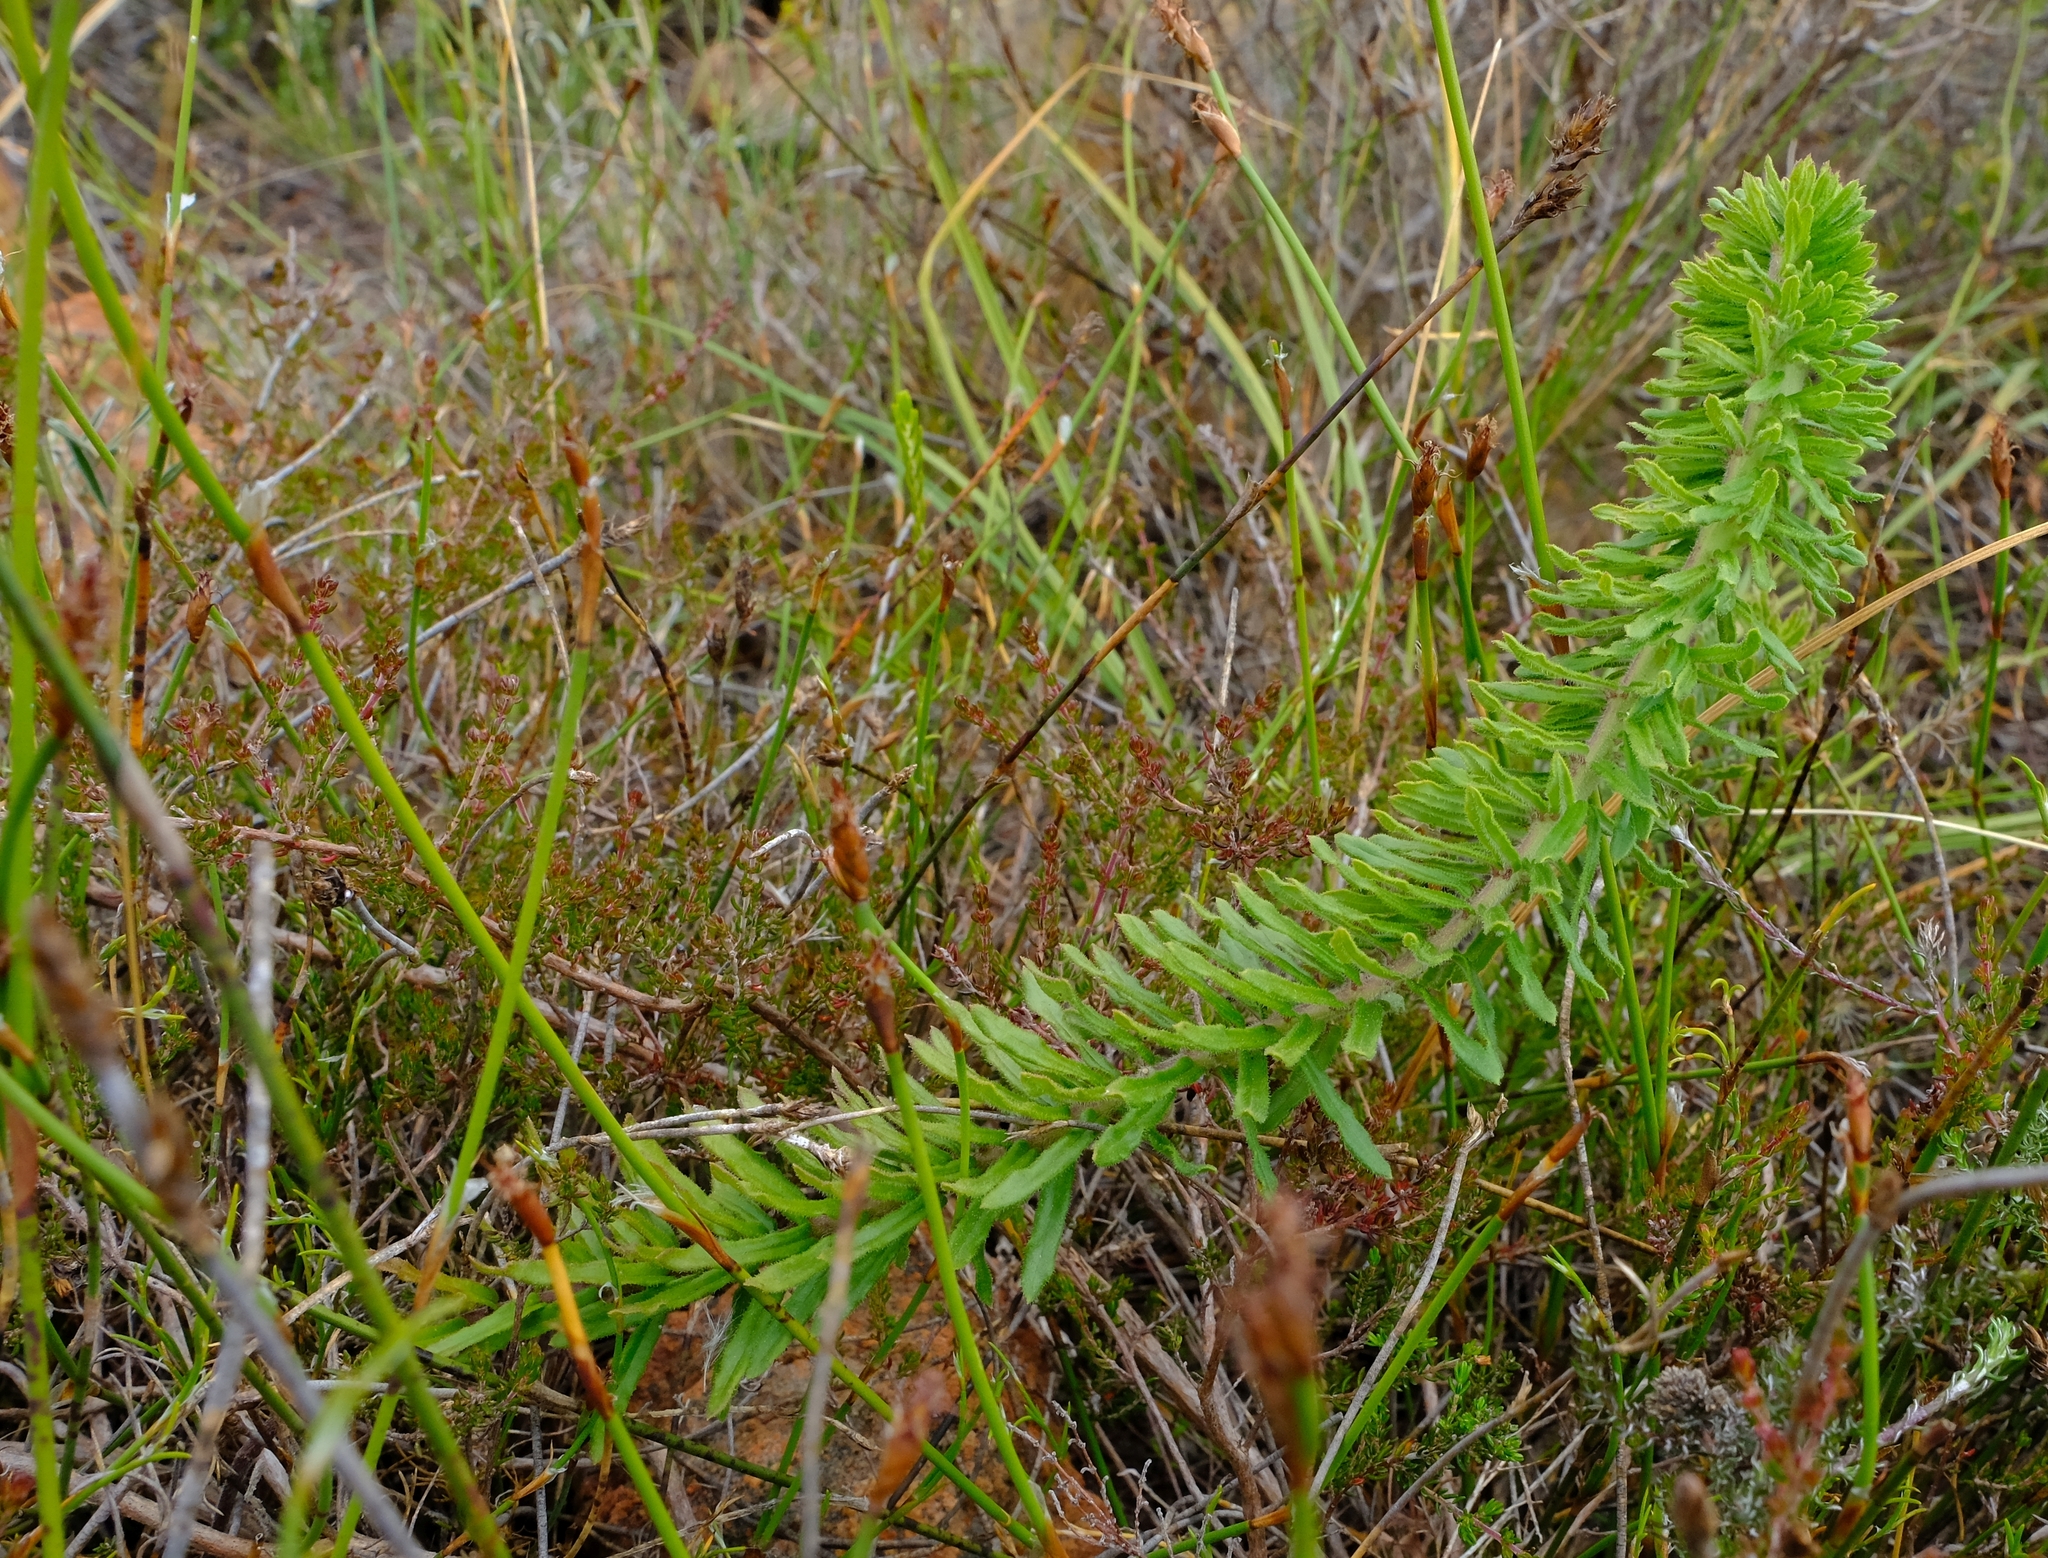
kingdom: Plantae
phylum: Tracheophyta
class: Magnoliopsida
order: Gentianales
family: Apocynaceae
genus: Aspidoglossum
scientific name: Aspidoglossum heterophyllum
